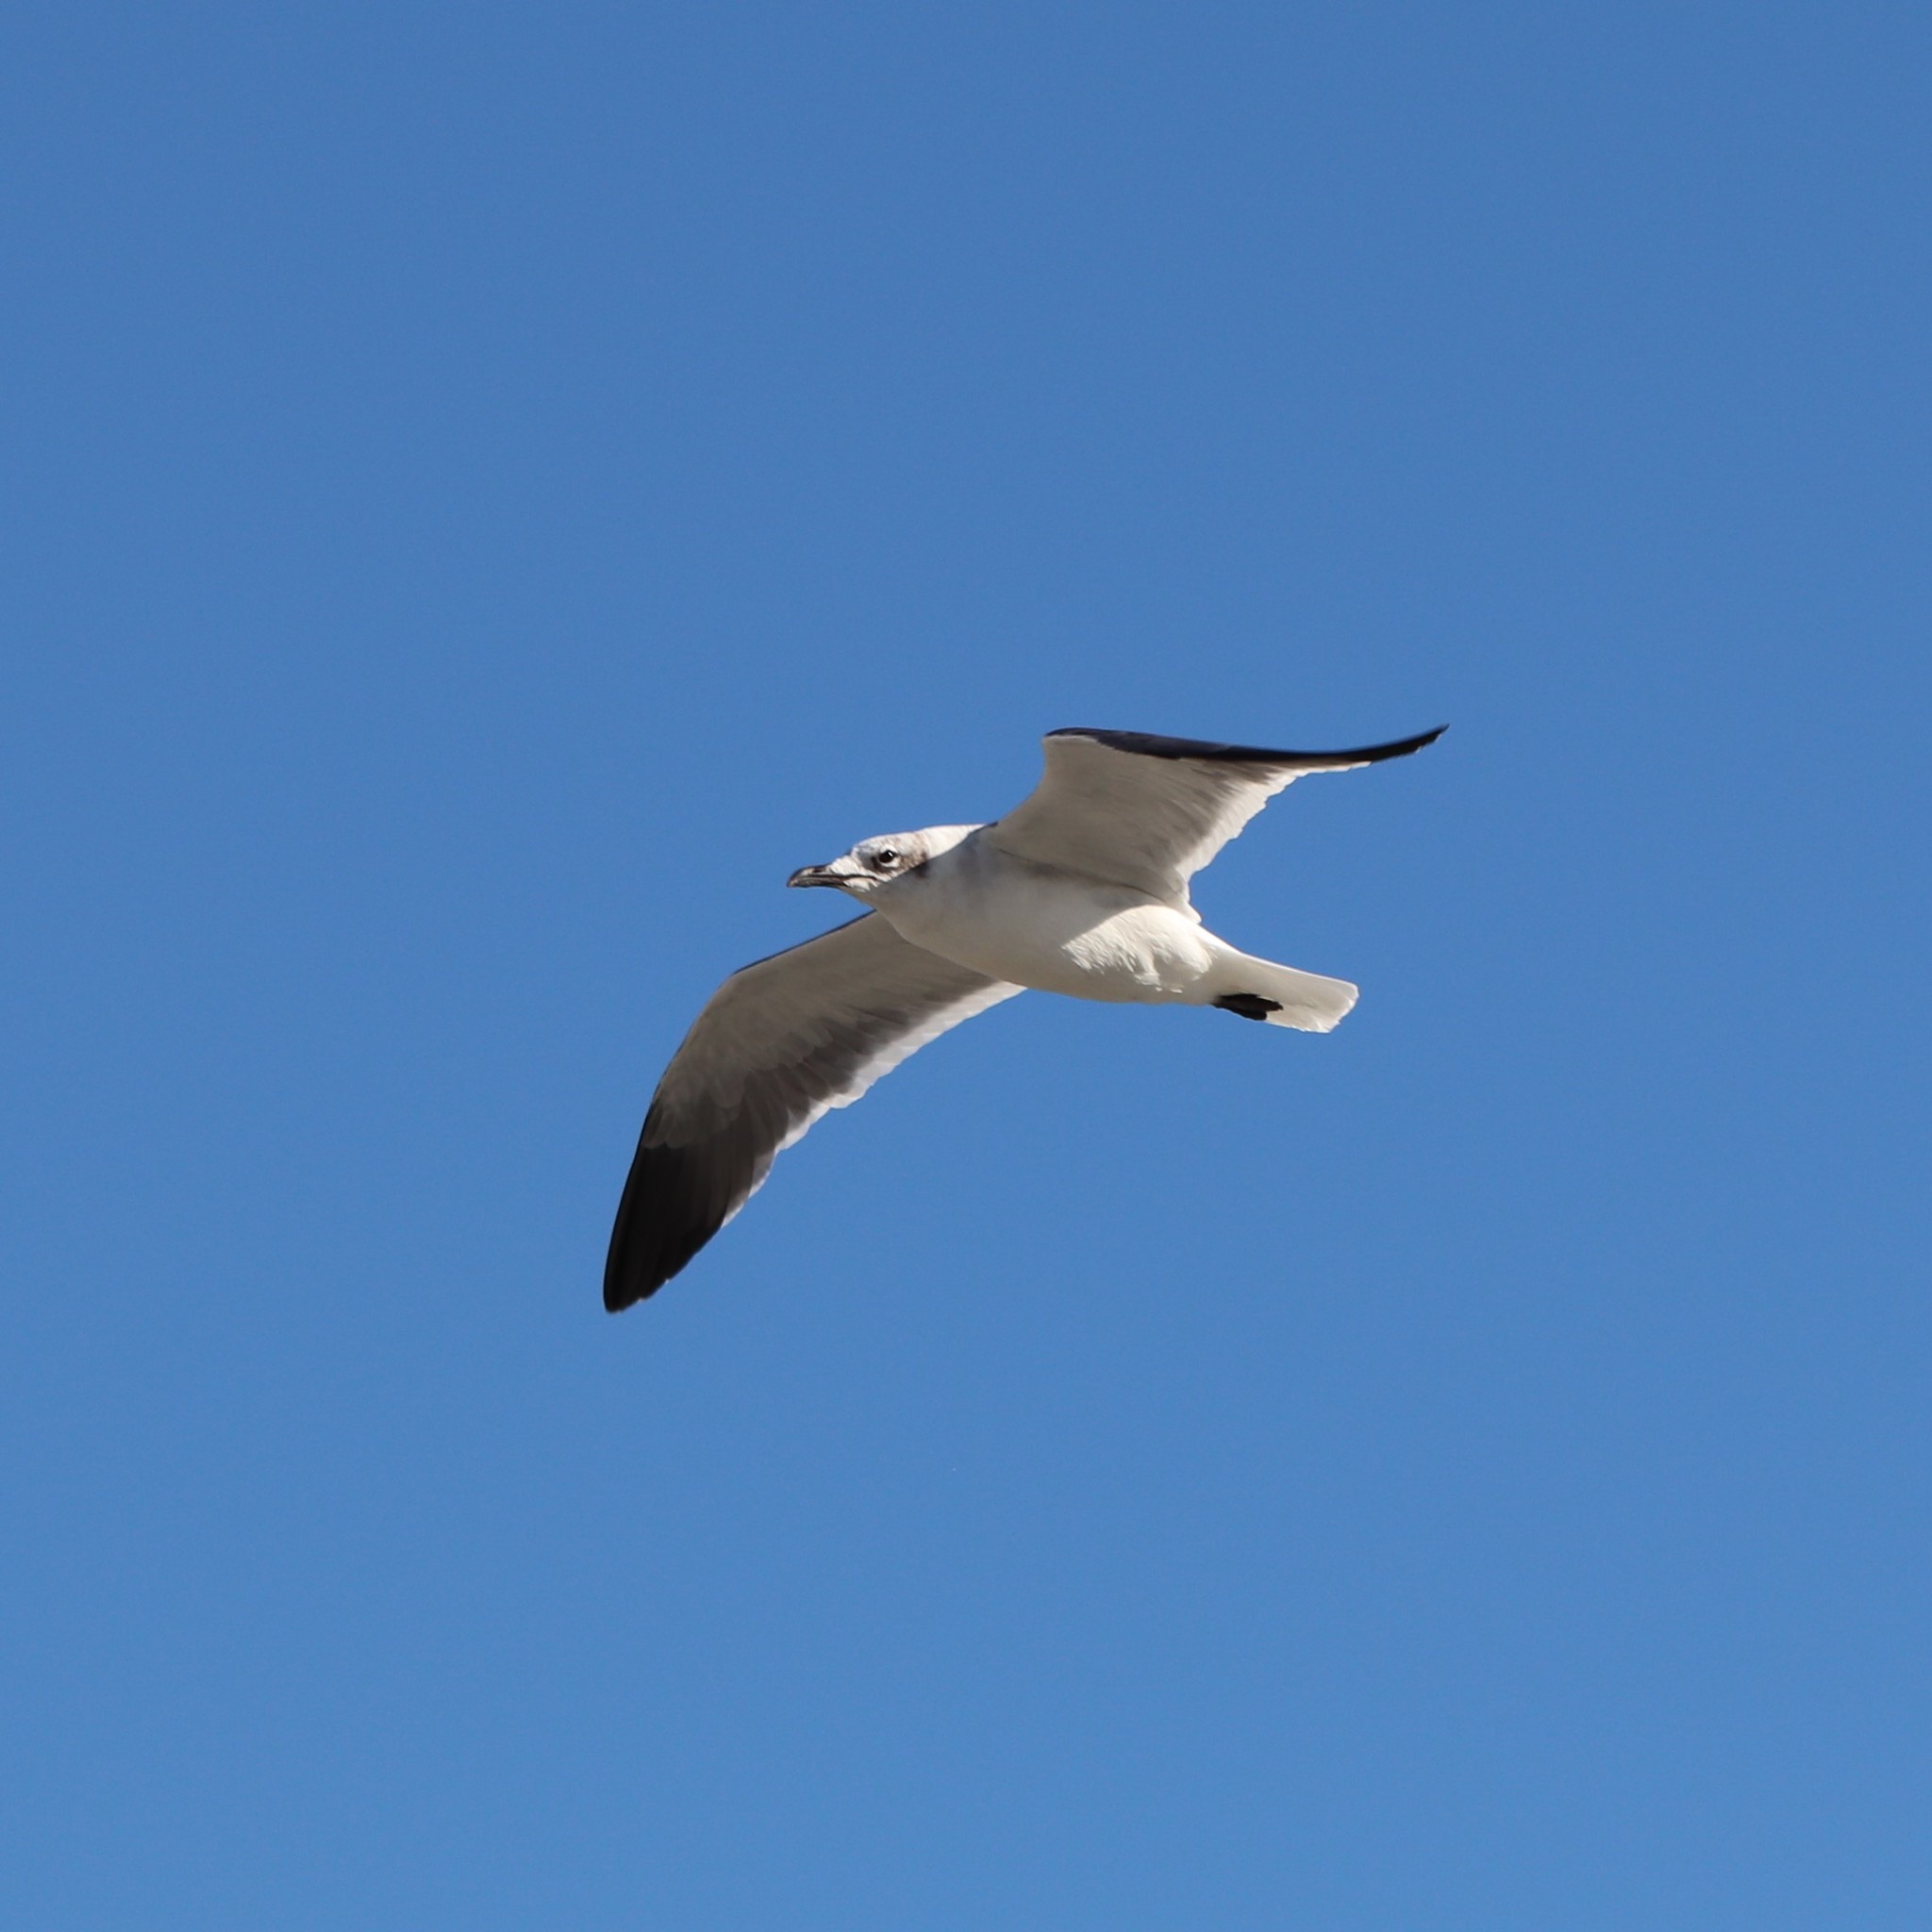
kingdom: Animalia
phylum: Chordata
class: Aves
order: Charadriiformes
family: Laridae
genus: Leucophaeus
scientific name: Leucophaeus atricilla
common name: Laughing gull
